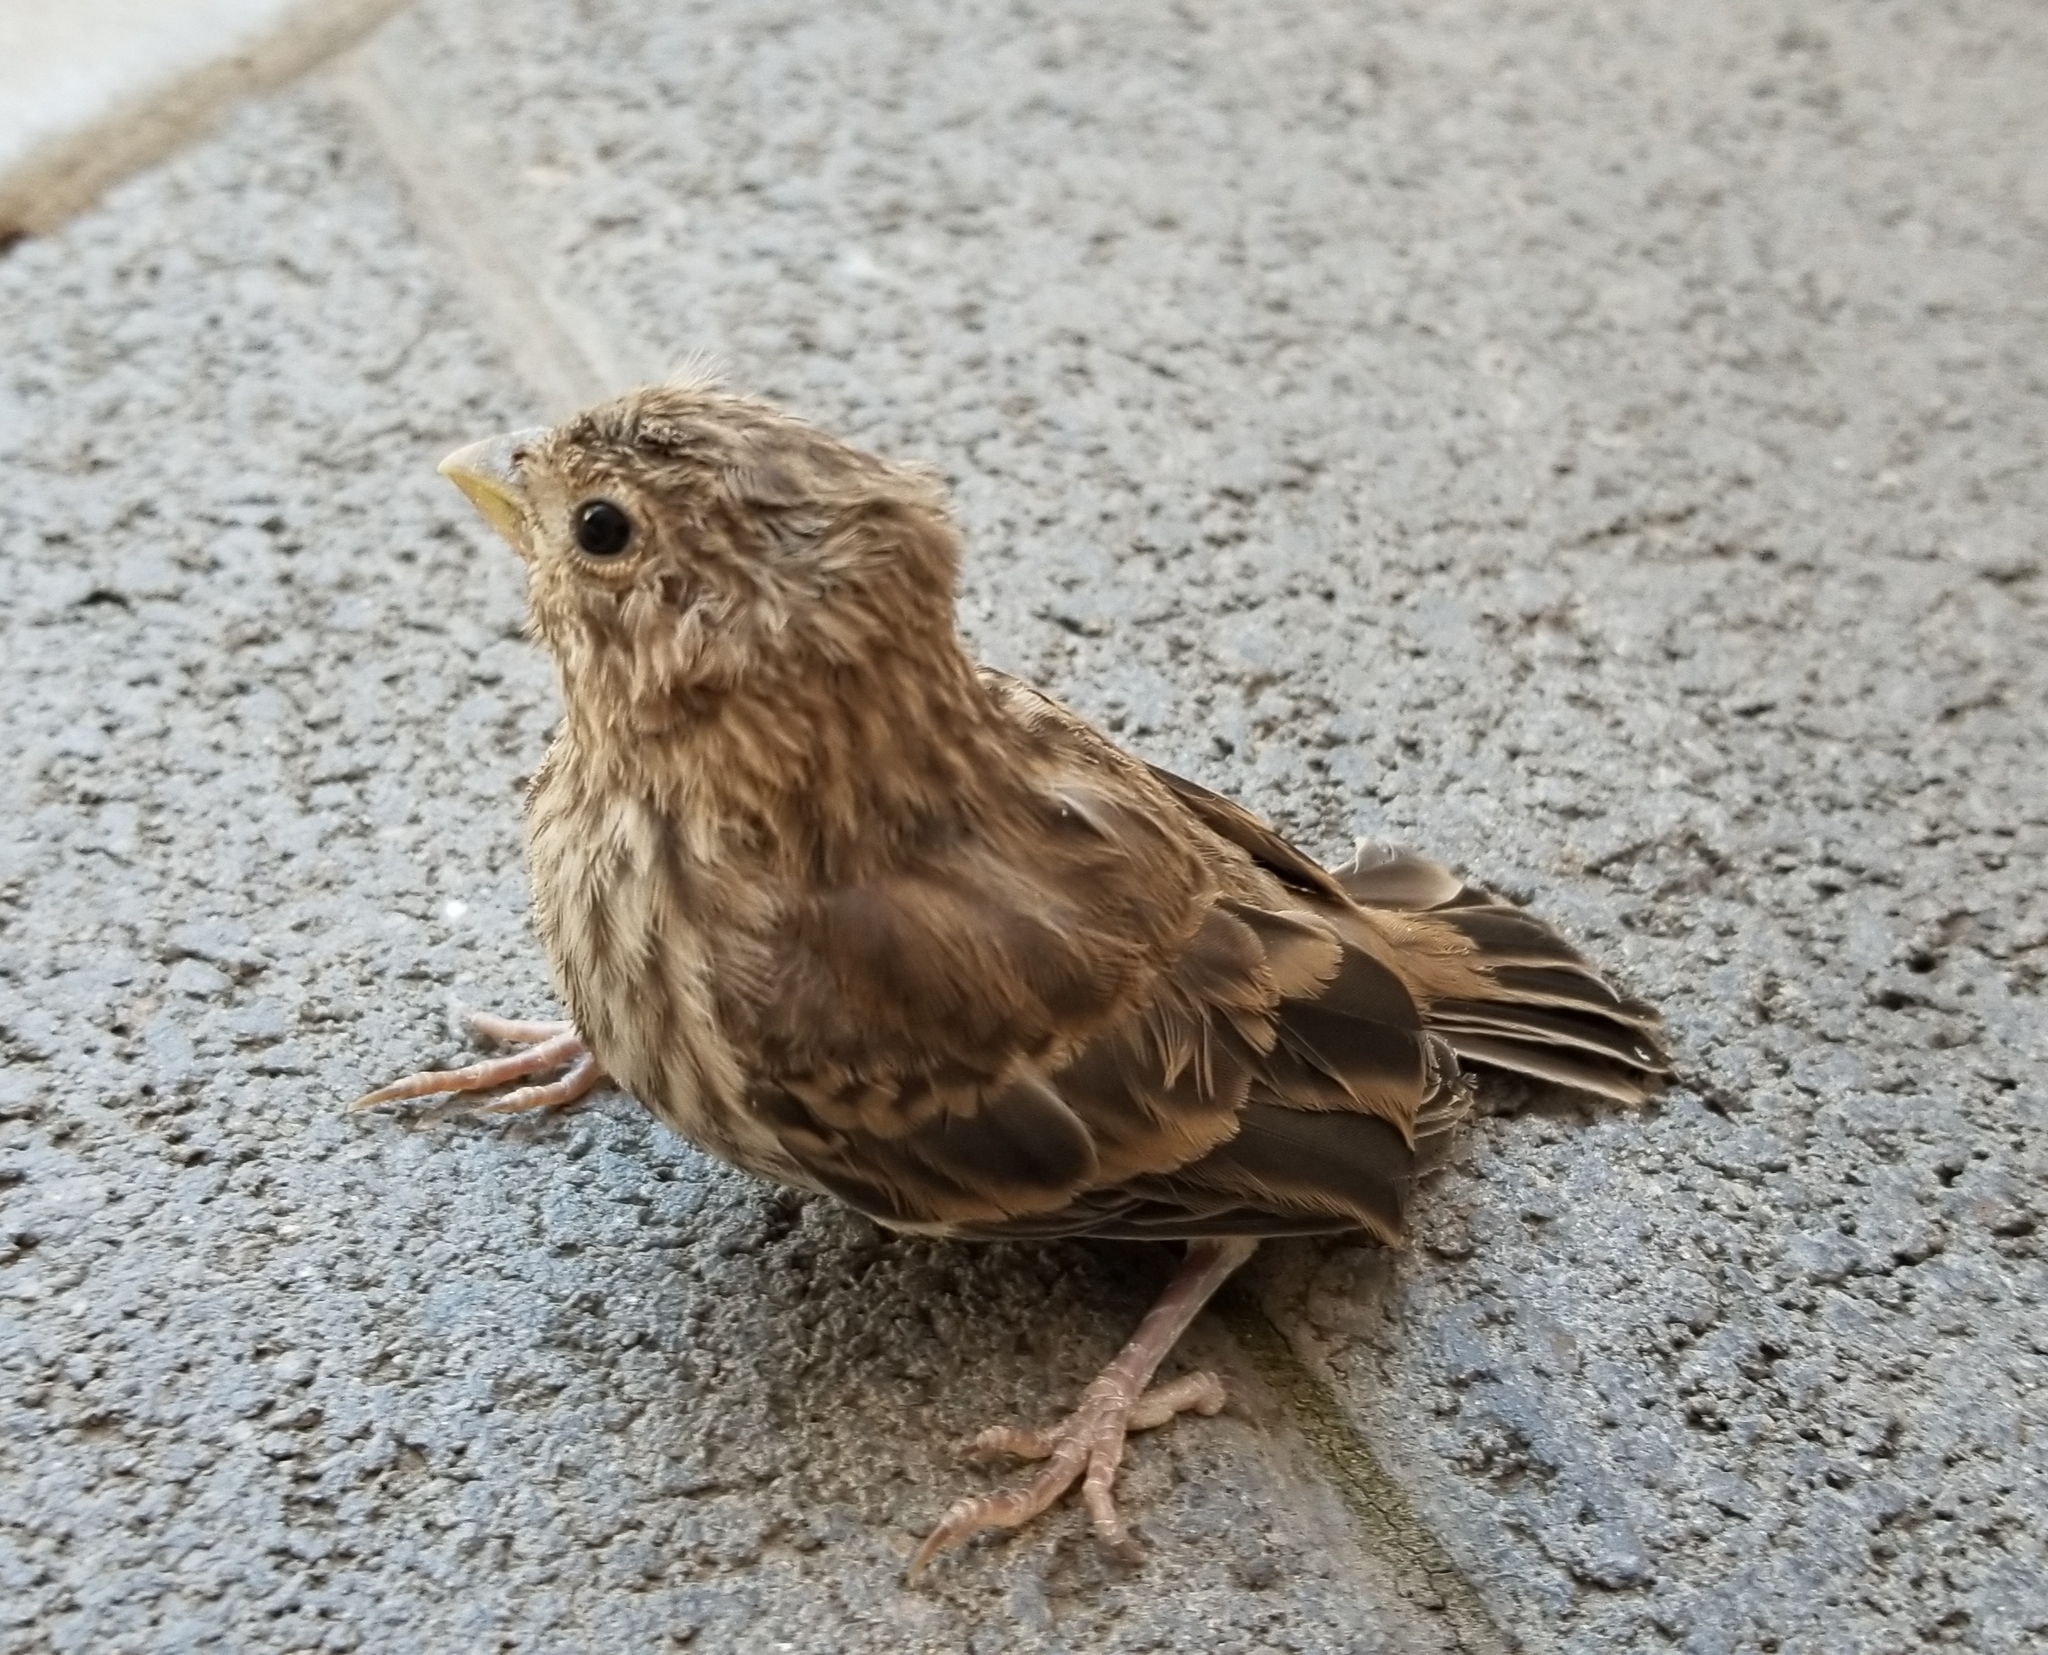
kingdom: Animalia
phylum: Chordata
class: Aves
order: Passeriformes
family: Fringillidae
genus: Haemorhous
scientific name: Haemorhous mexicanus
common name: House finch
